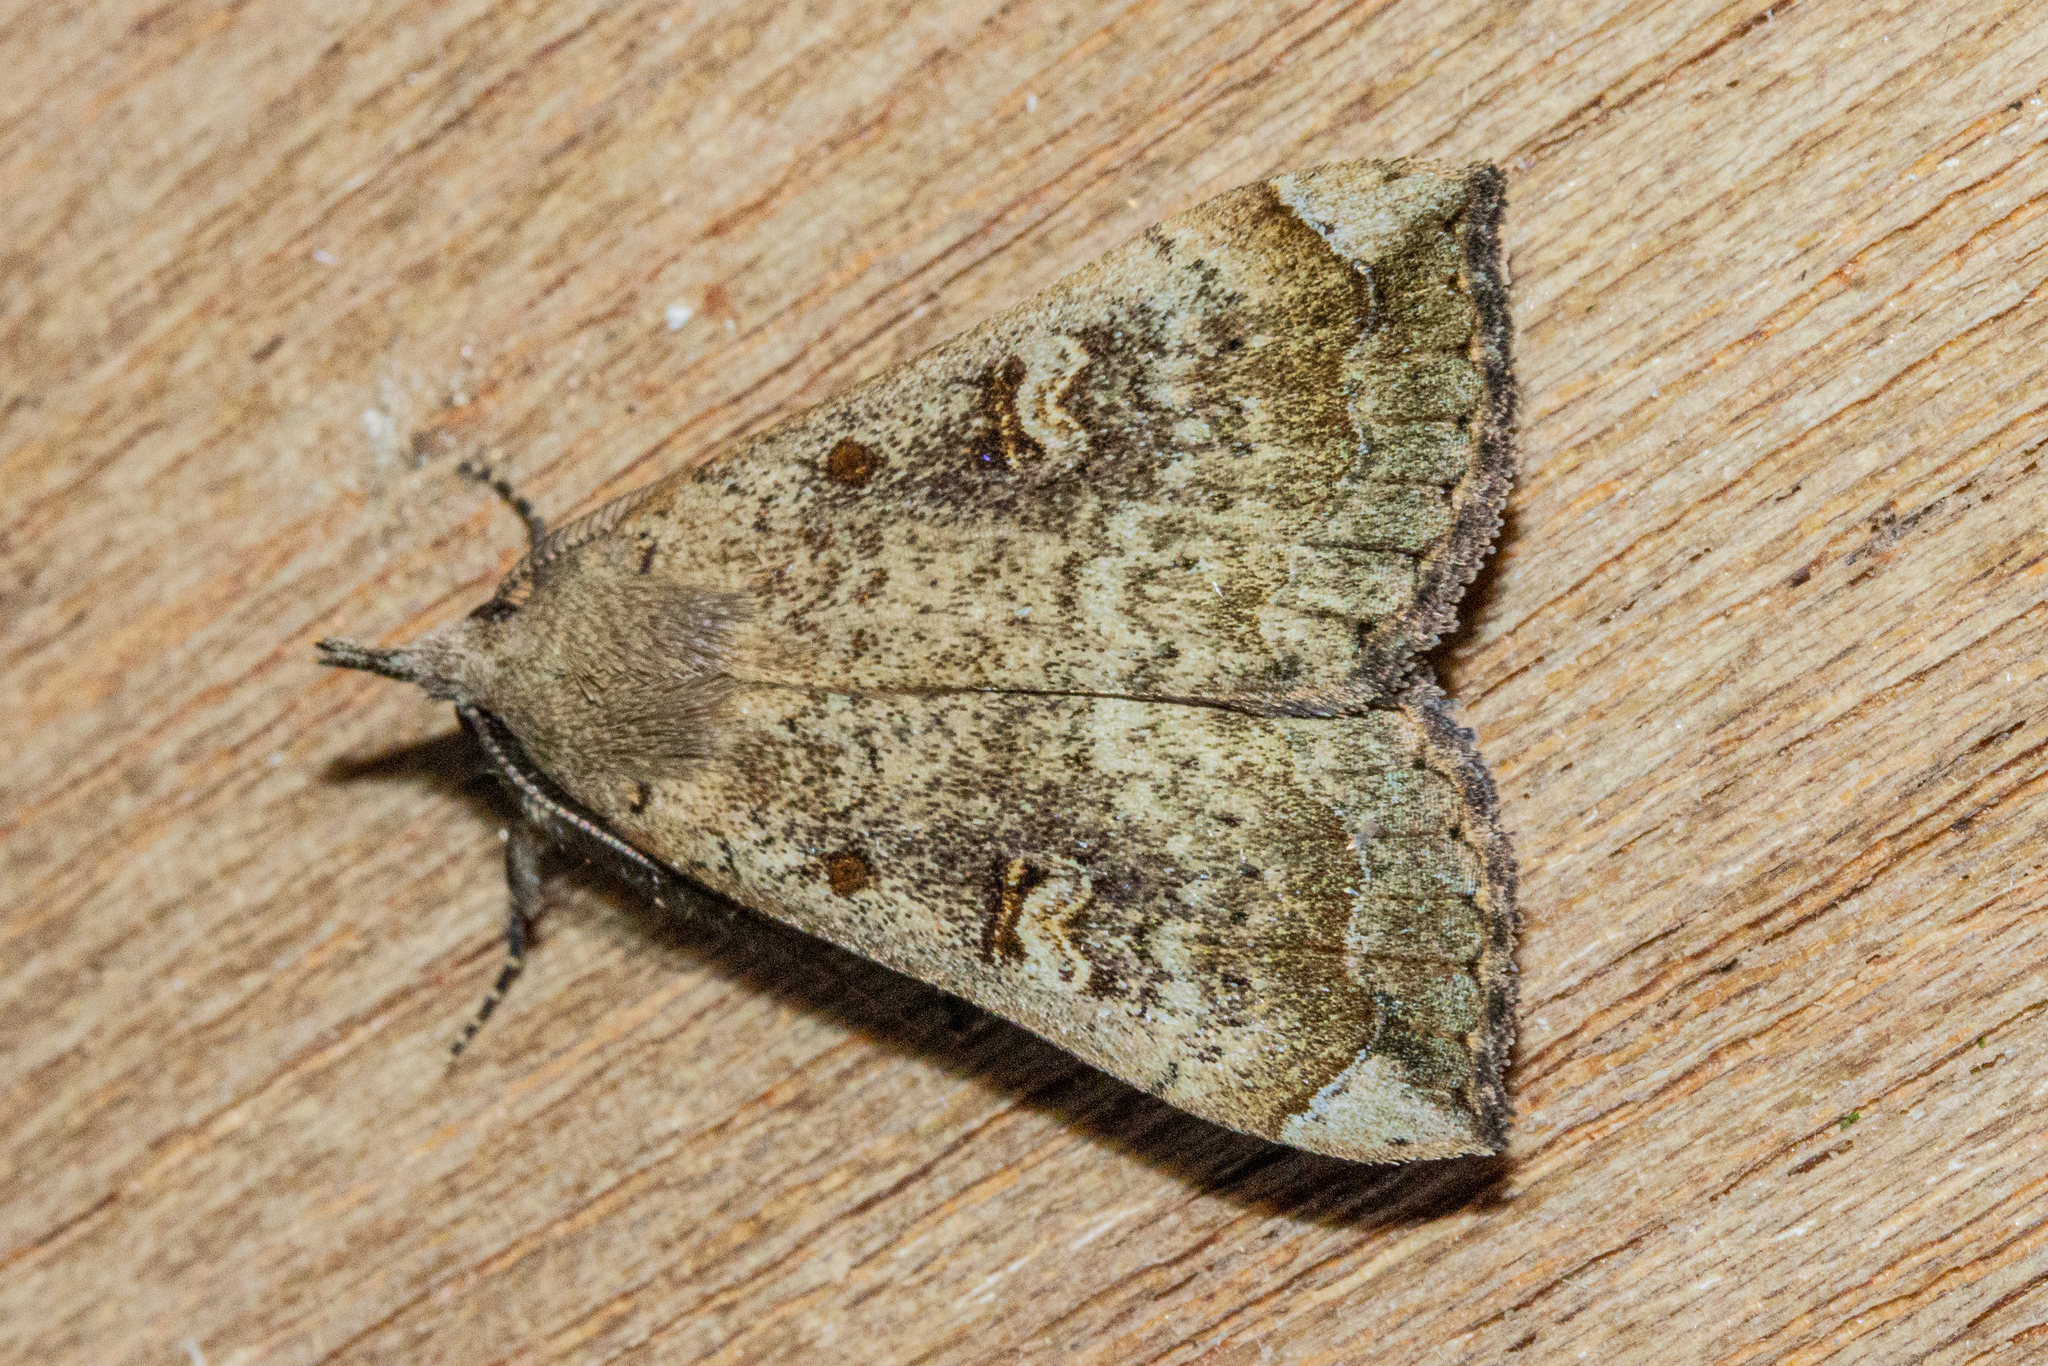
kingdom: Animalia
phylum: Arthropoda
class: Insecta
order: Lepidoptera
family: Erebidae
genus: Rhapsa
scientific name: Rhapsa scotosialis
